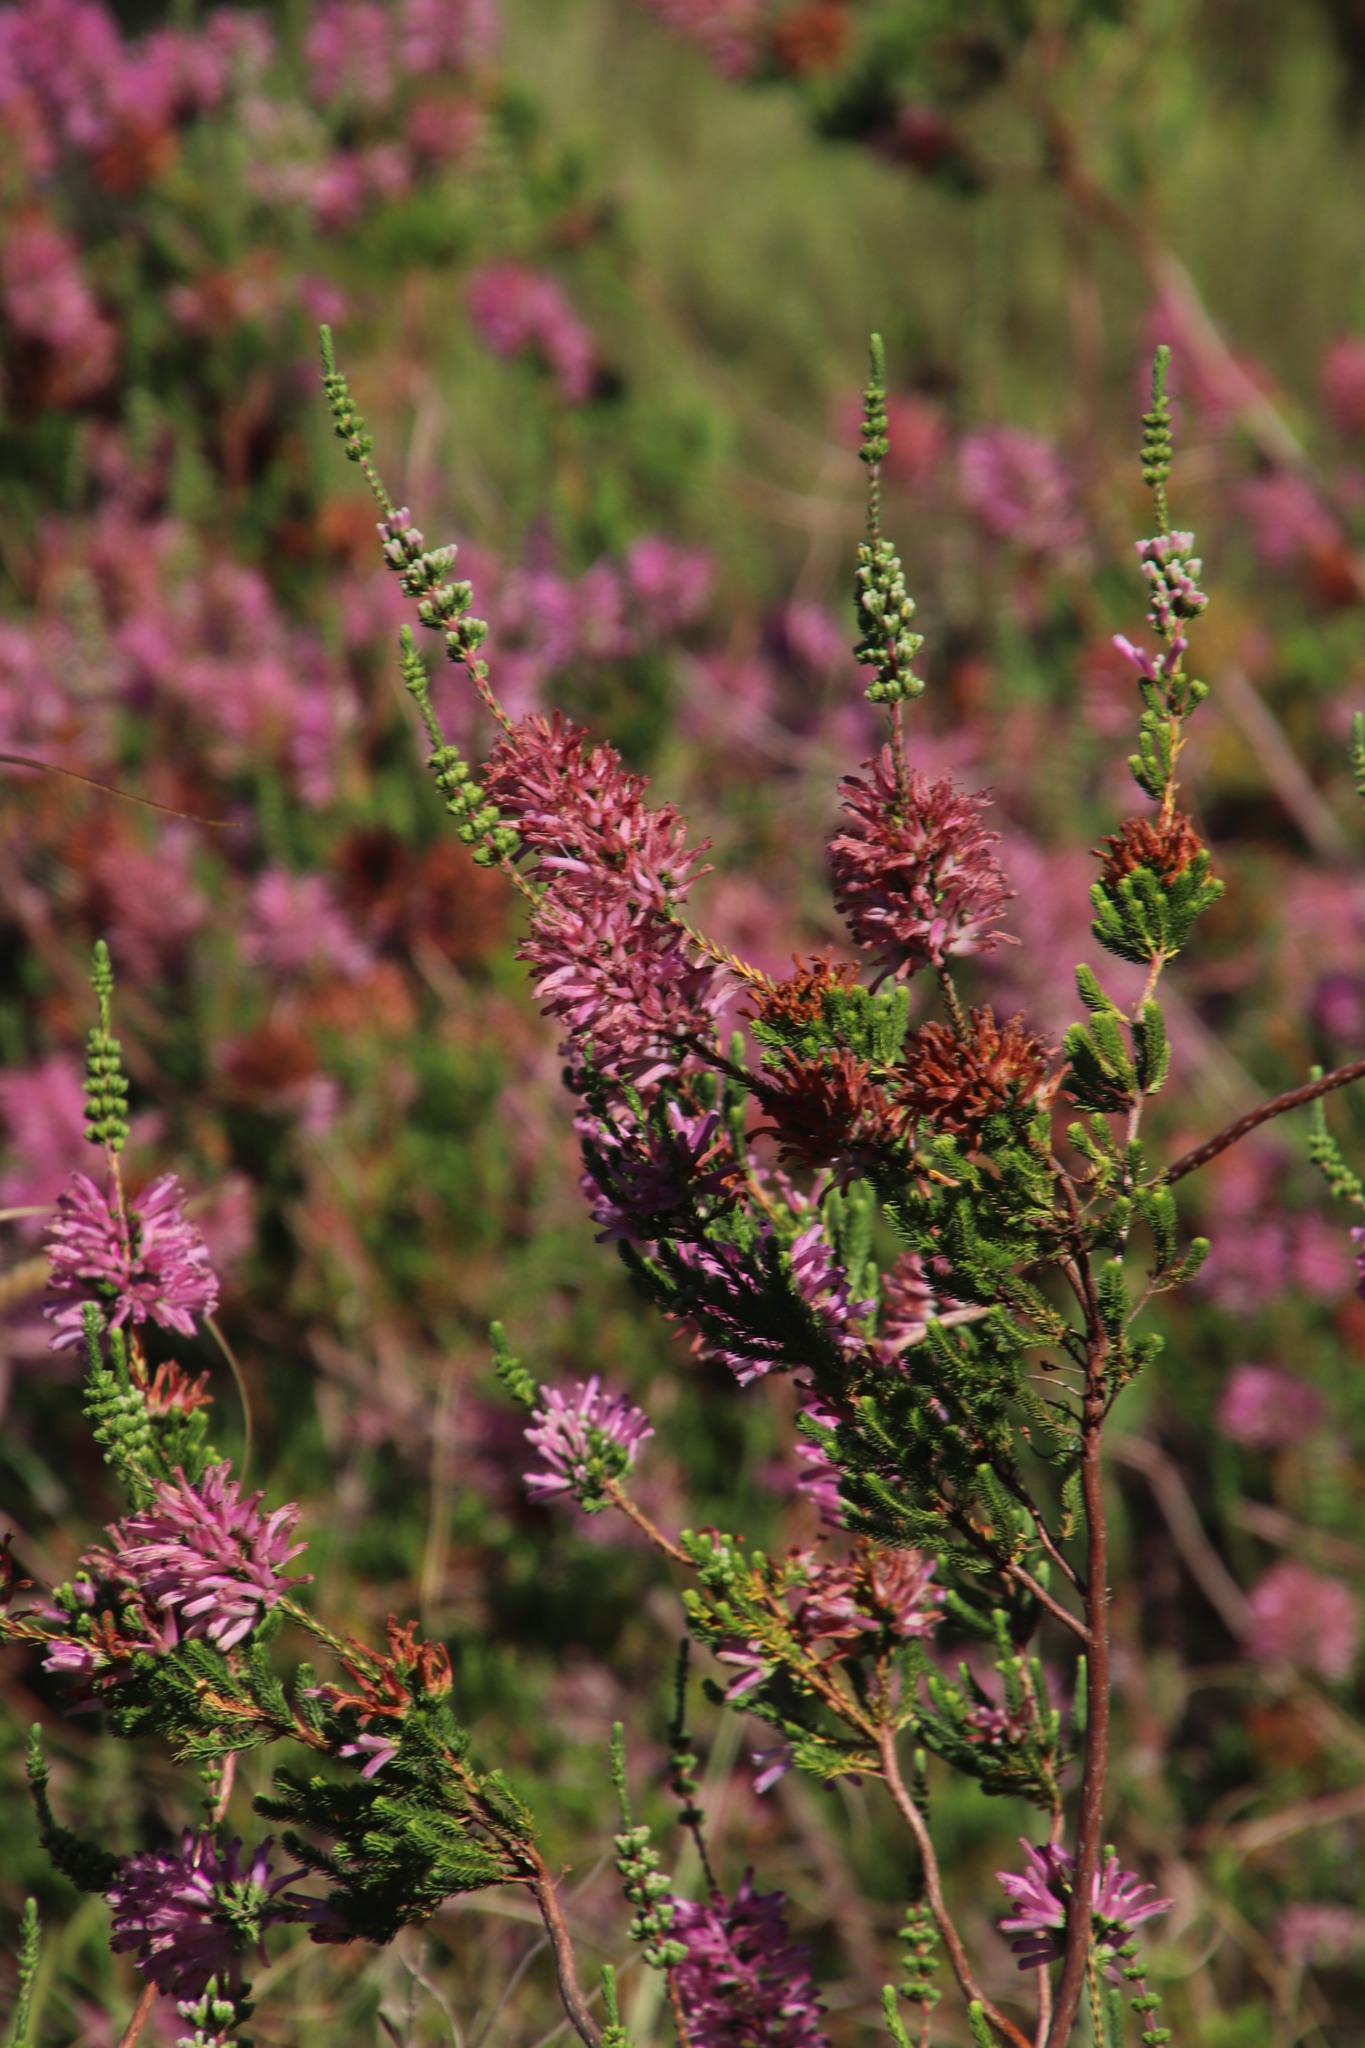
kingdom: Plantae
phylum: Tracheophyta
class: Magnoliopsida
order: Ericales
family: Ericaceae
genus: Erica
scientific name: Erica verticillata
